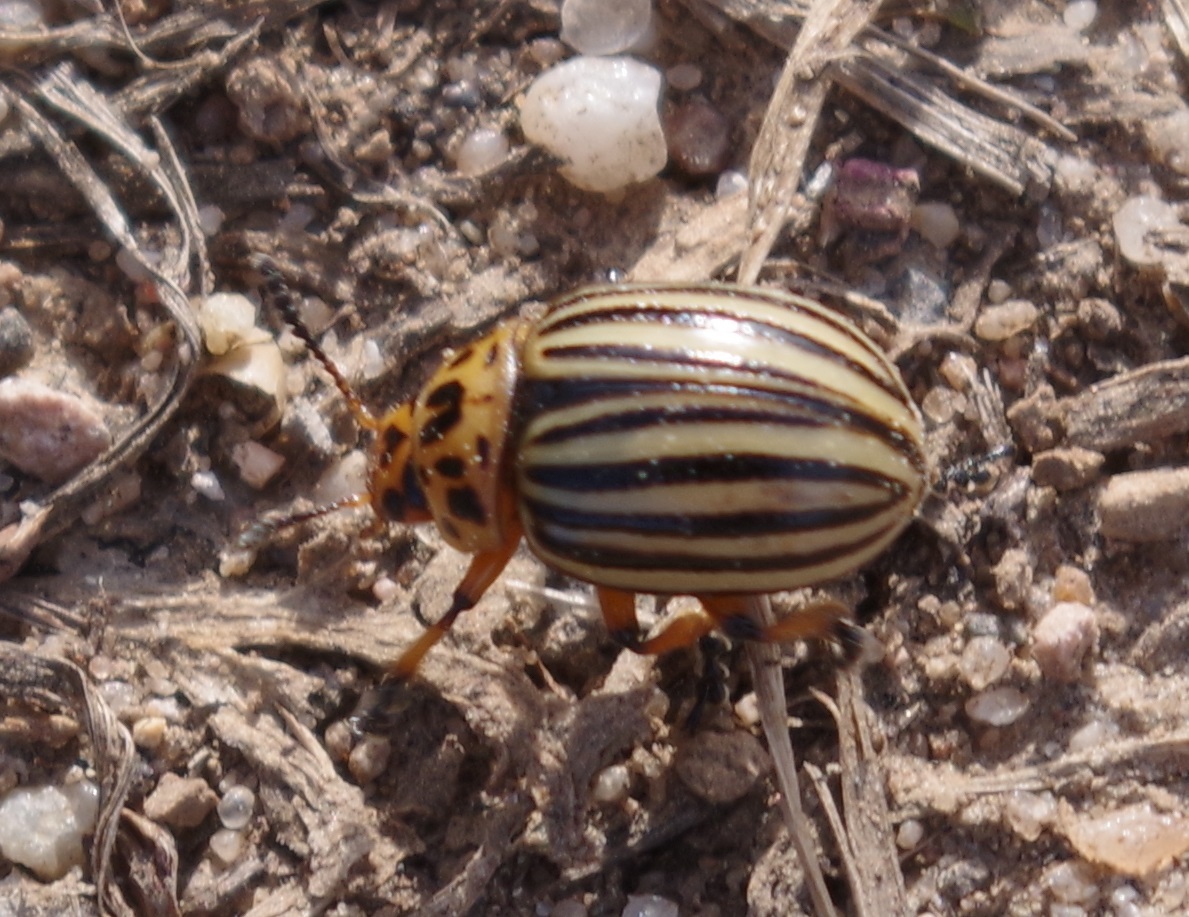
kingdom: Animalia
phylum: Arthropoda
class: Insecta
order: Coleoptera
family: Chrysomelidae
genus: Leptinotarsa
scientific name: Leptinotarsa decemlineata
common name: Colorado potato beetle
